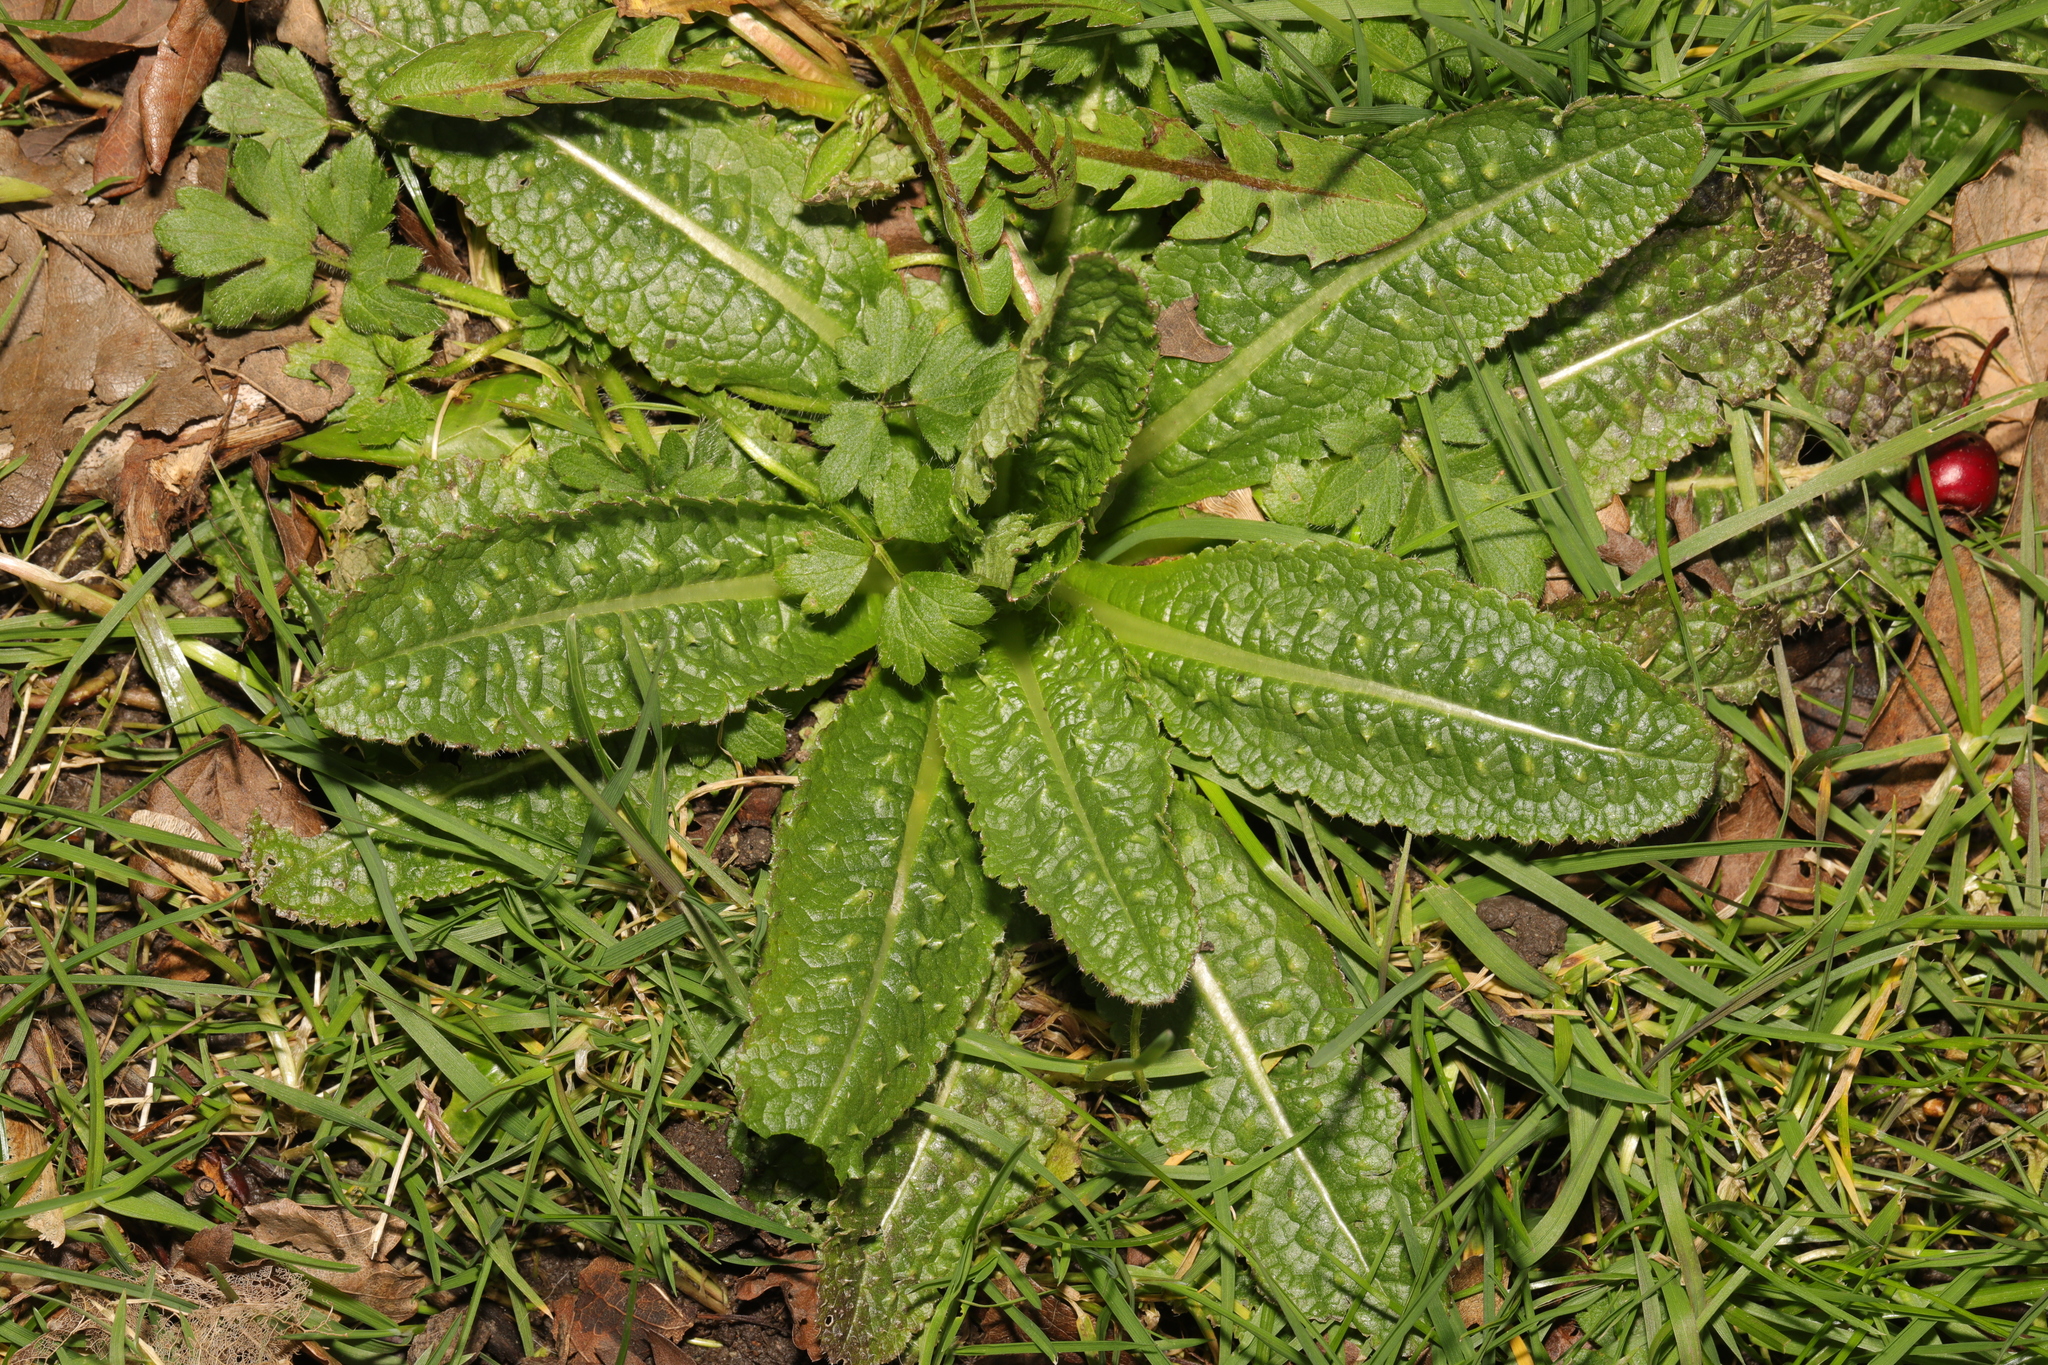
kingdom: Plantae
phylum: Tracheophyta
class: Magnoliopsida
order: Dipsacales
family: Caprifoliaceae
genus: Dipsacus
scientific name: Dipsacus fullonum
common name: Teasel
